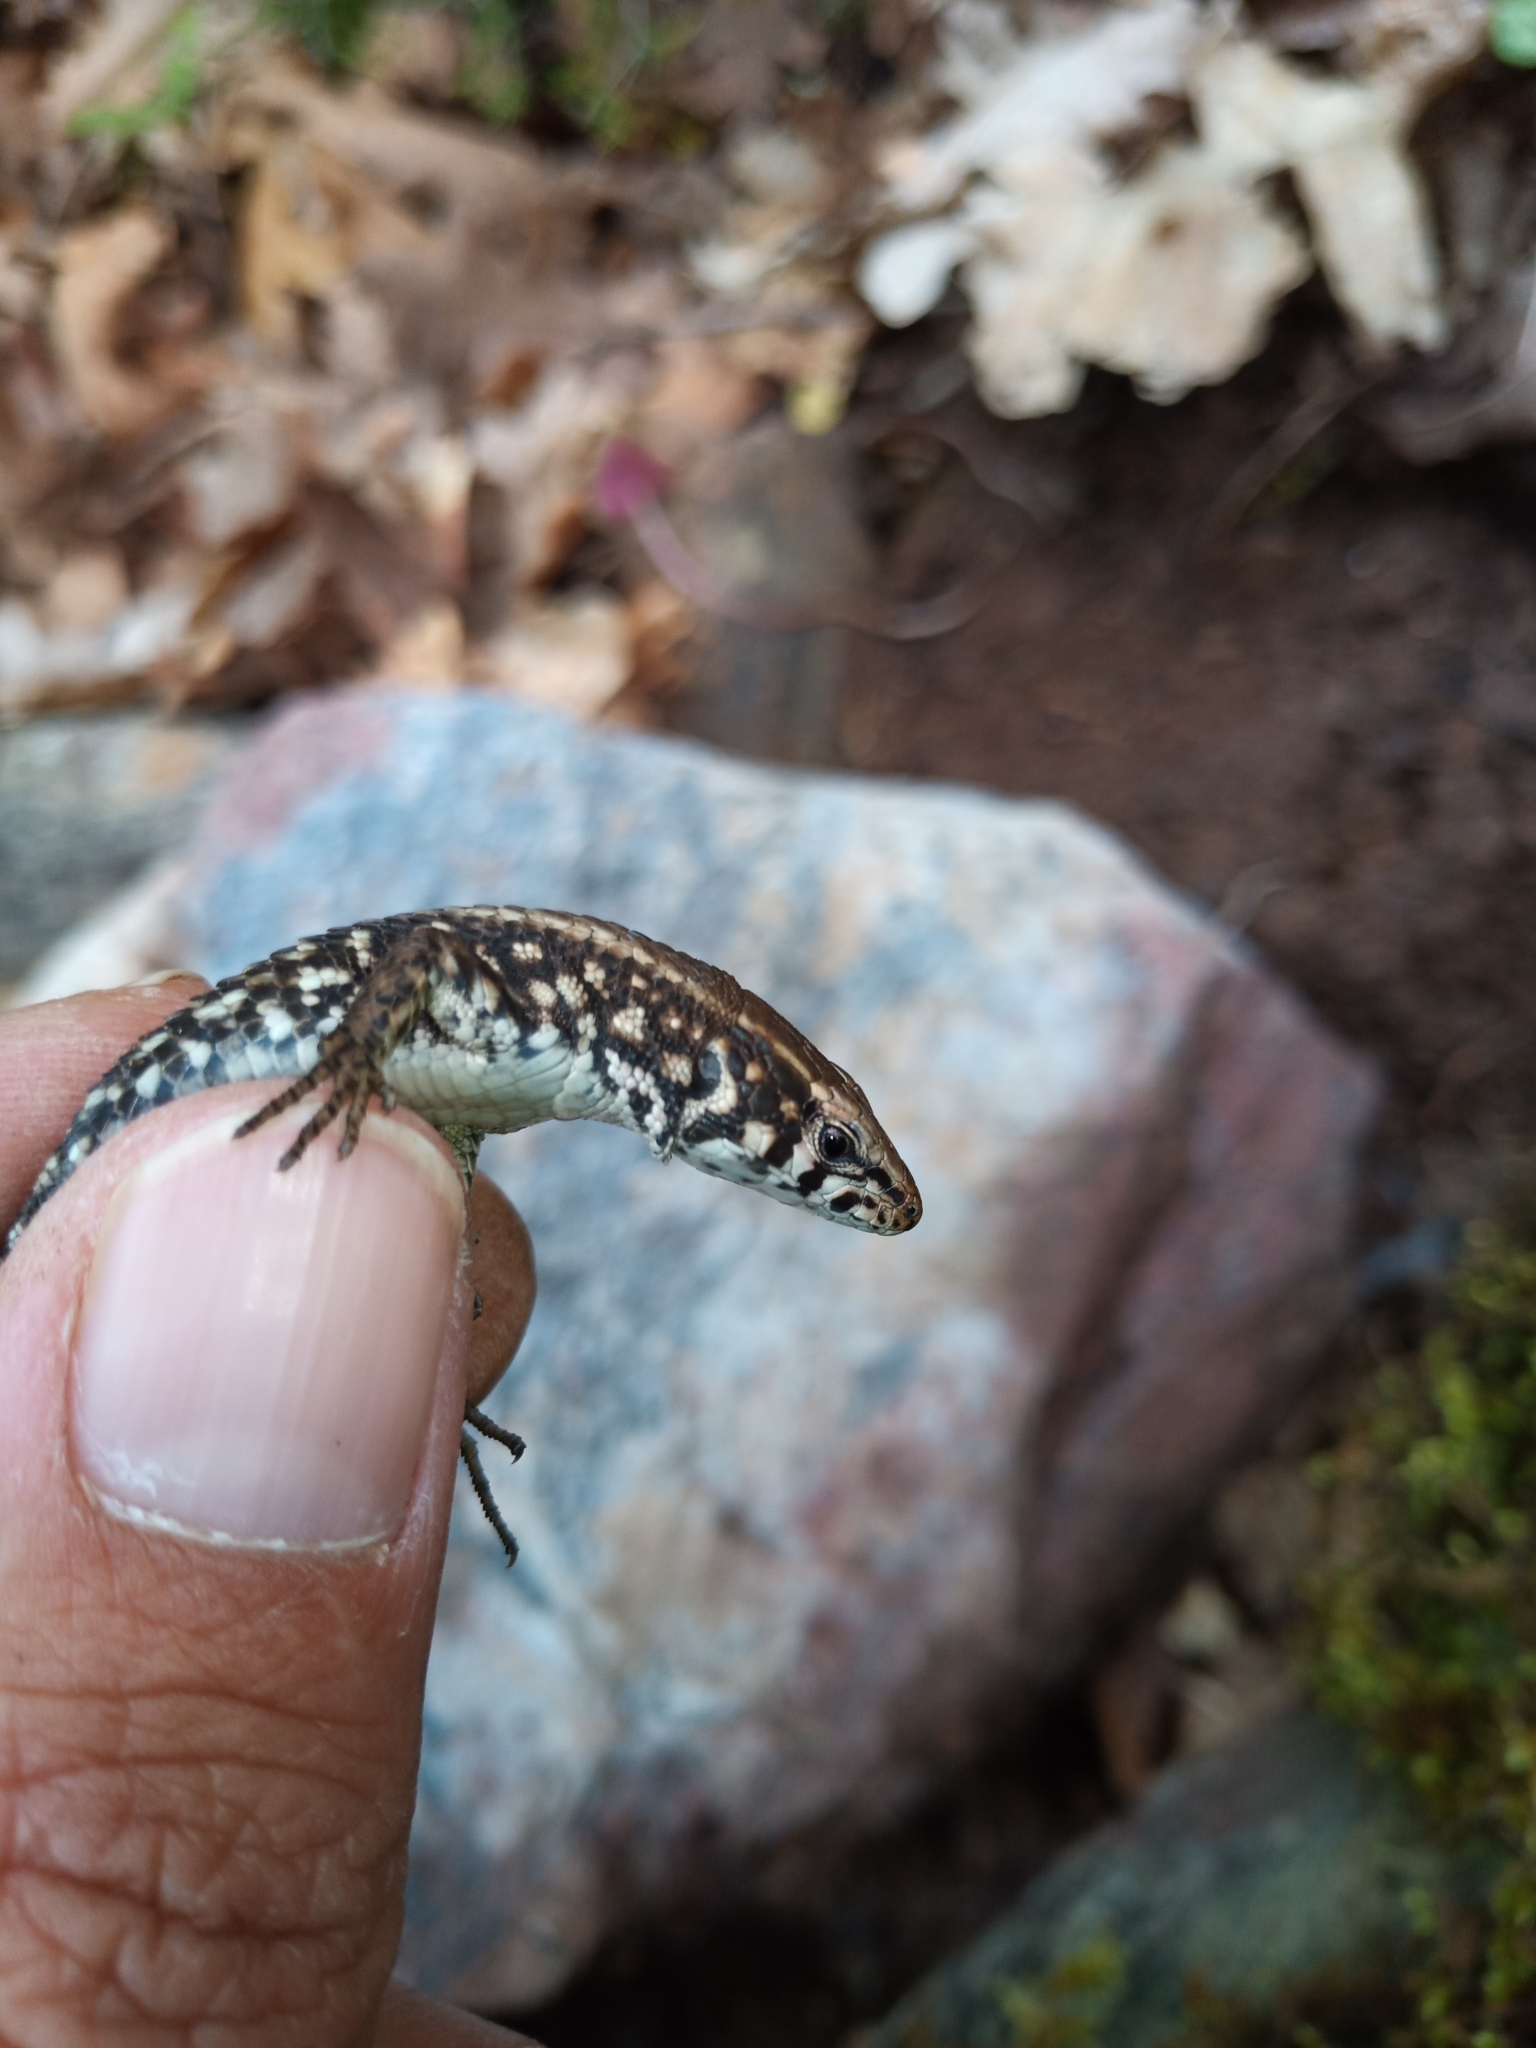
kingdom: Animalia
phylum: Chordata
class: Squamata
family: Lacertidae
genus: Algyroides
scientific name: Algyroides moreoticus
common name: Greek algyroides
